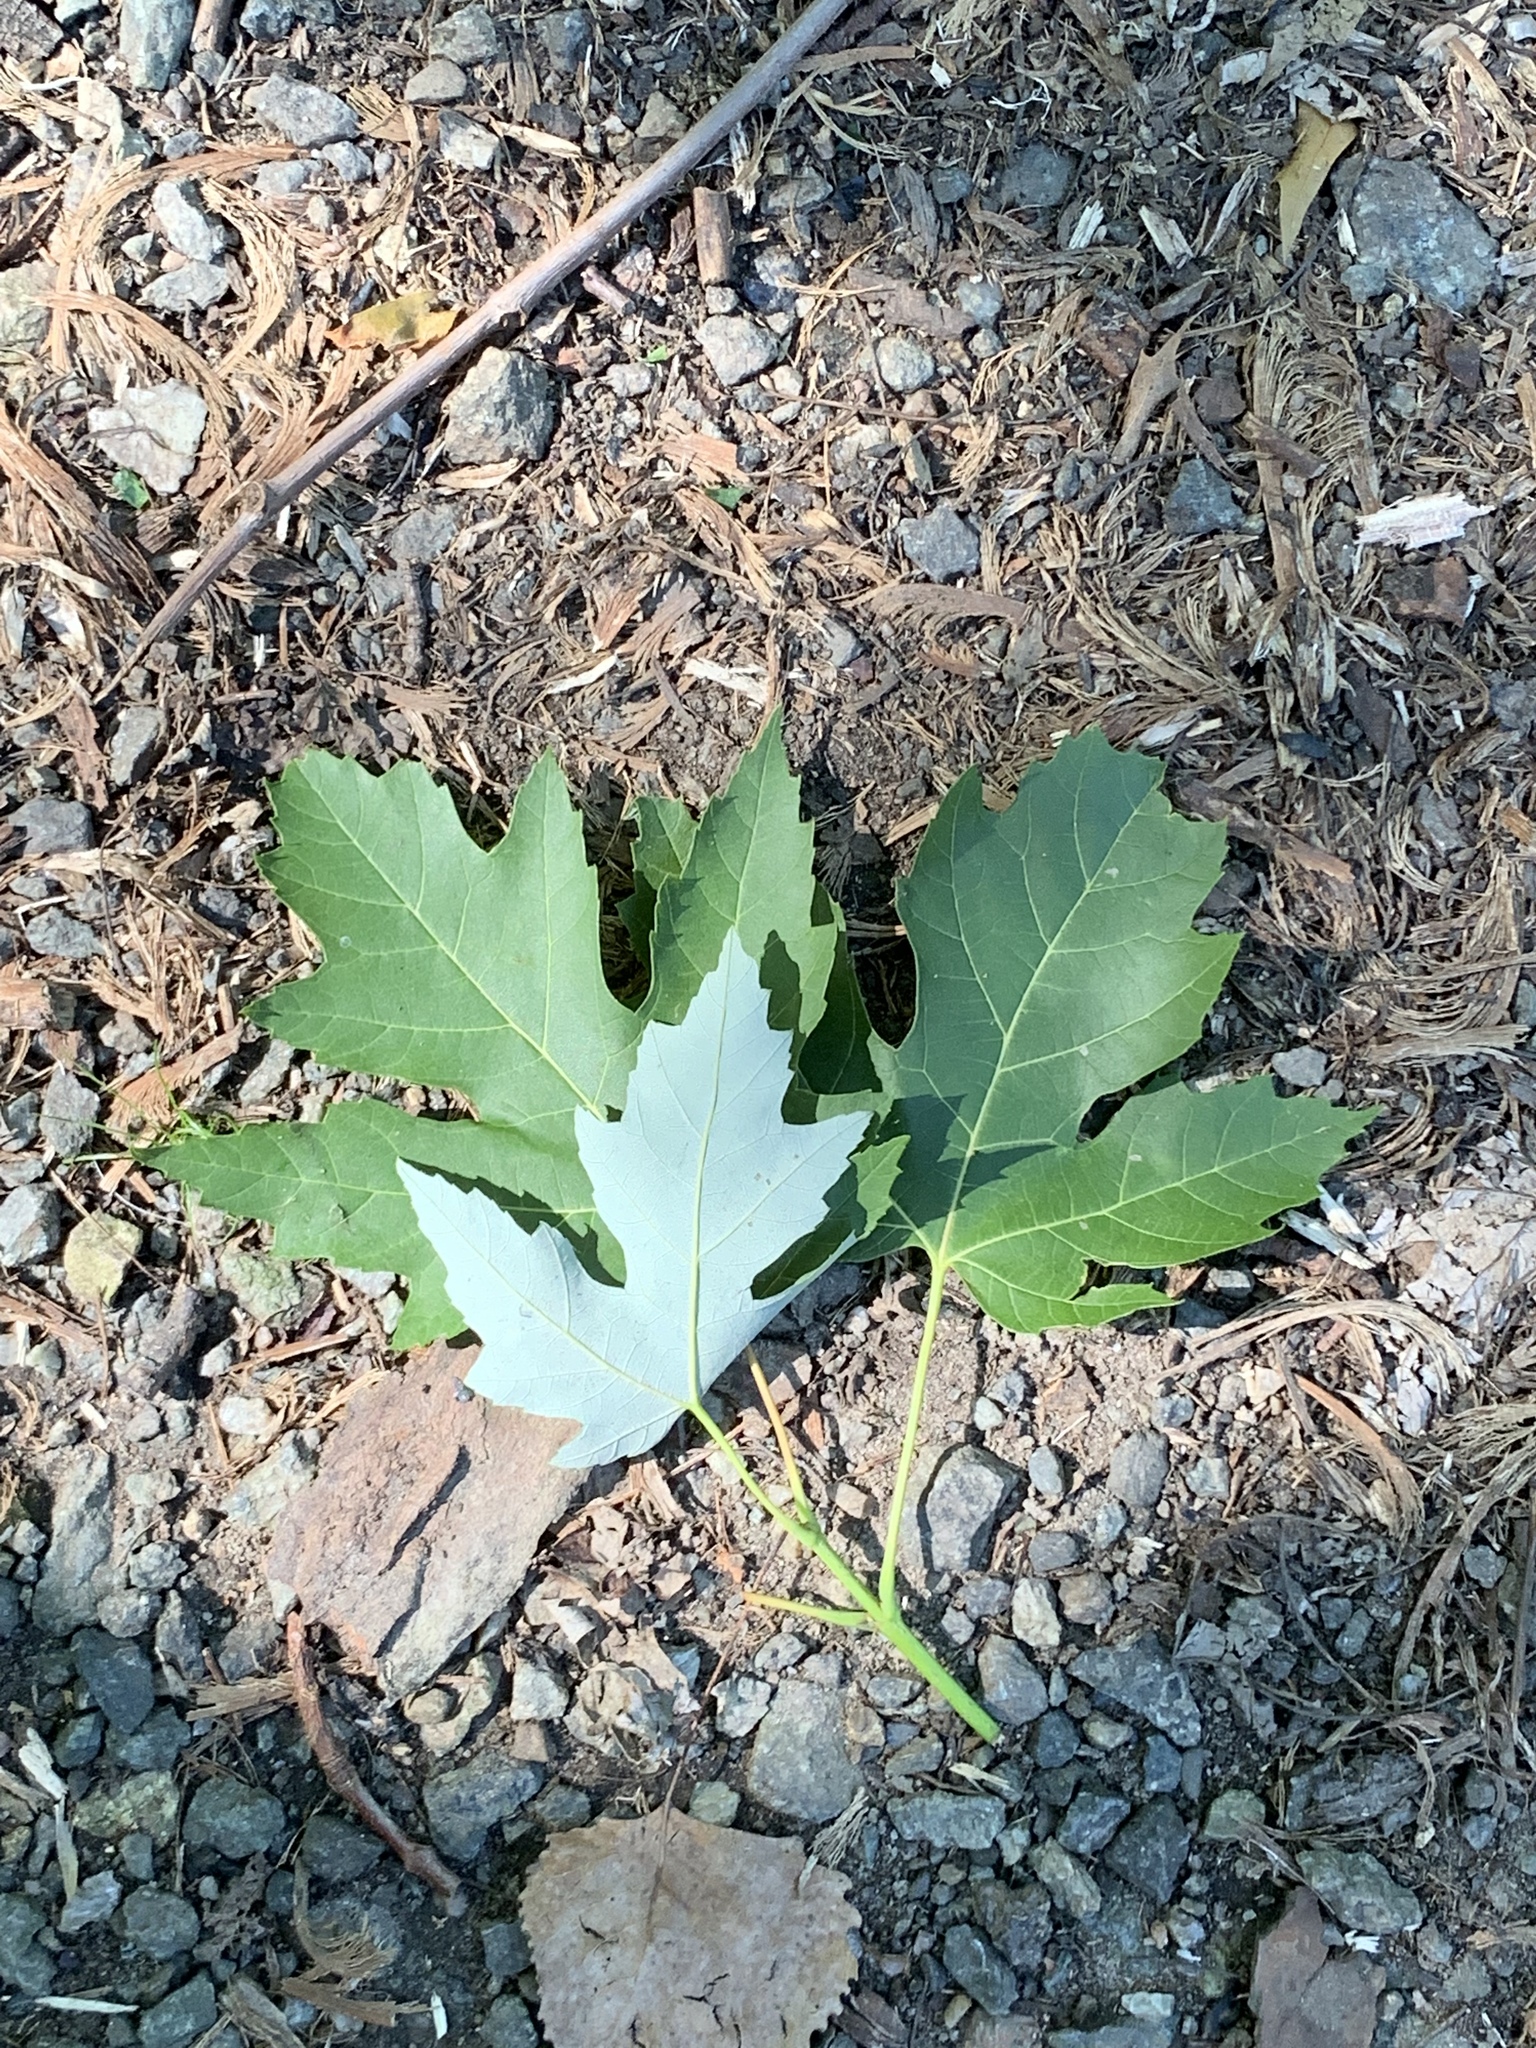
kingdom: Plantae
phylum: Tracheophyta
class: Magnoliopsida
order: Sapindales
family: Sapindaceae
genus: Acer
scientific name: Acer saccharinum
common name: Silver maple
